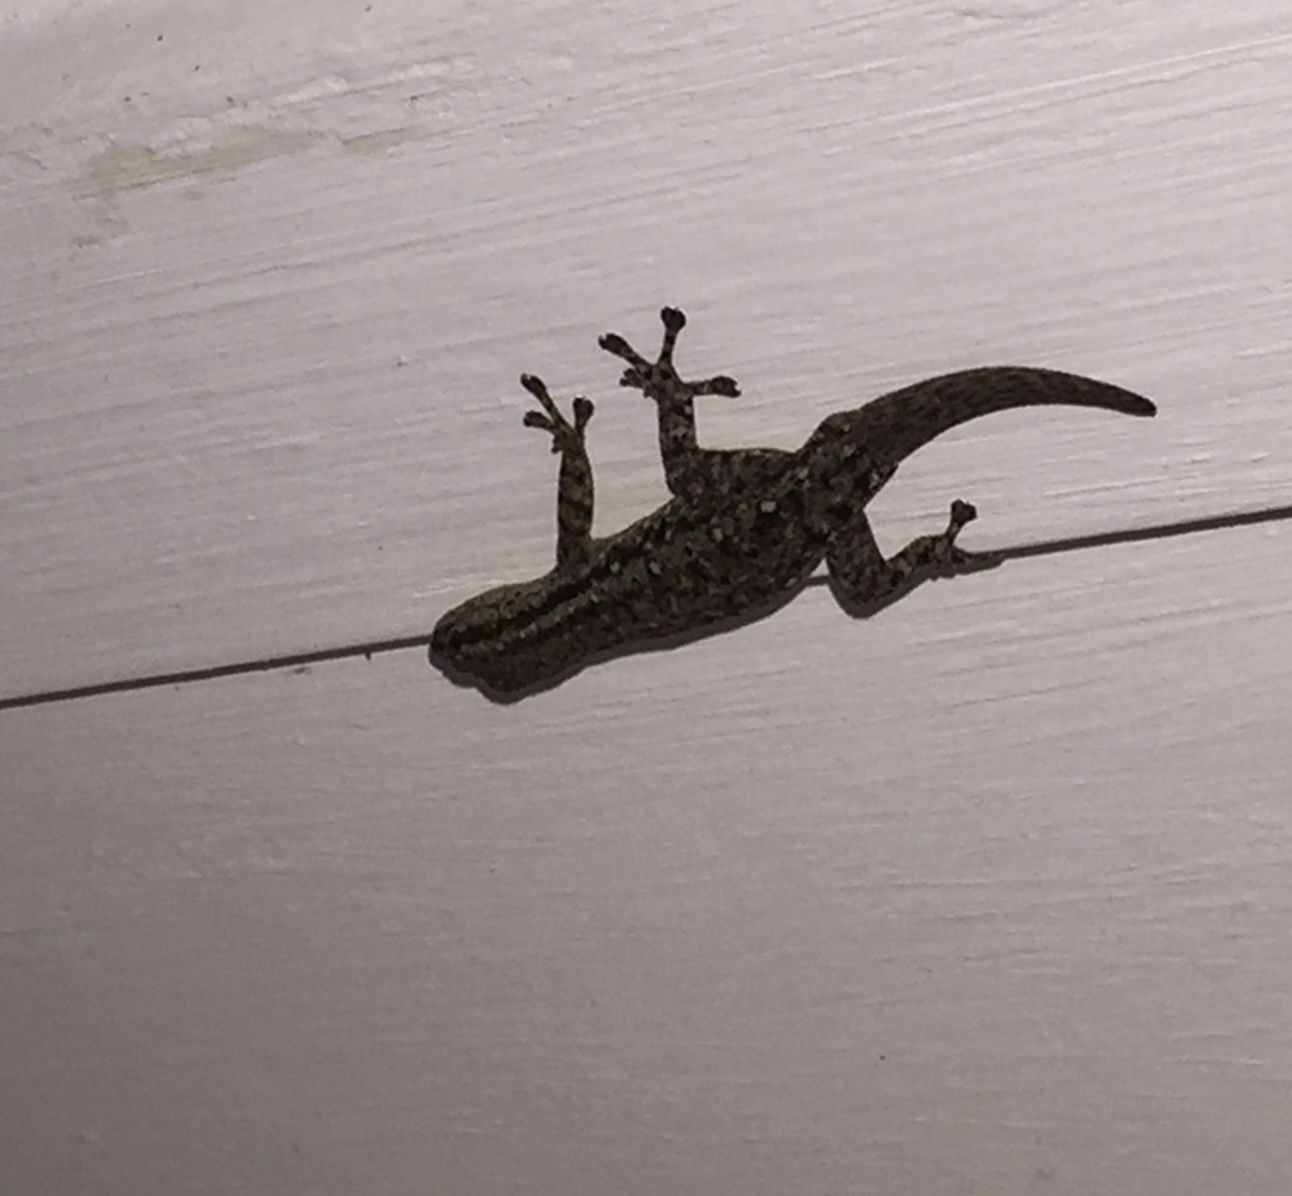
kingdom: Animalia
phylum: Chordata
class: Squamata
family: Gekkonidae
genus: Lygodactylus
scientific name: Lygodactylus capensis
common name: Cape dwarf gecko
